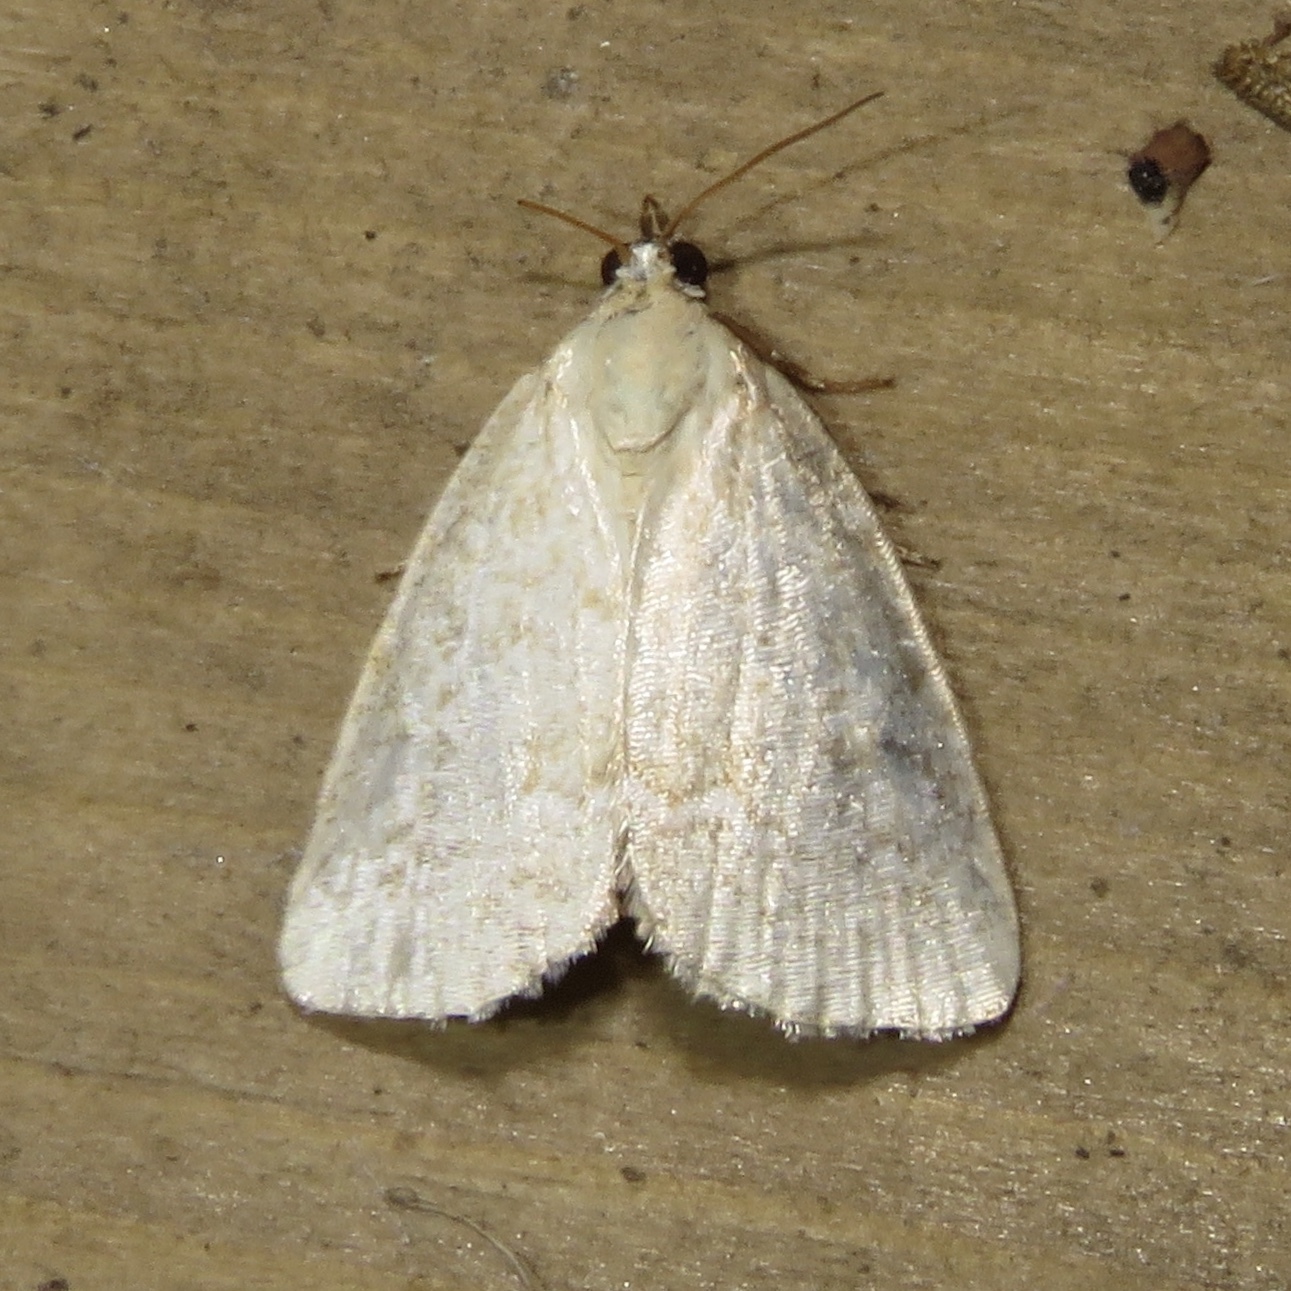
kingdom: Animalia
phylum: Arthropoda
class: Insecta
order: Lepidoptera
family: Noctuidae
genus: Protodeltote
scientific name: Protodeltote albidula
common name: Pale glyph
